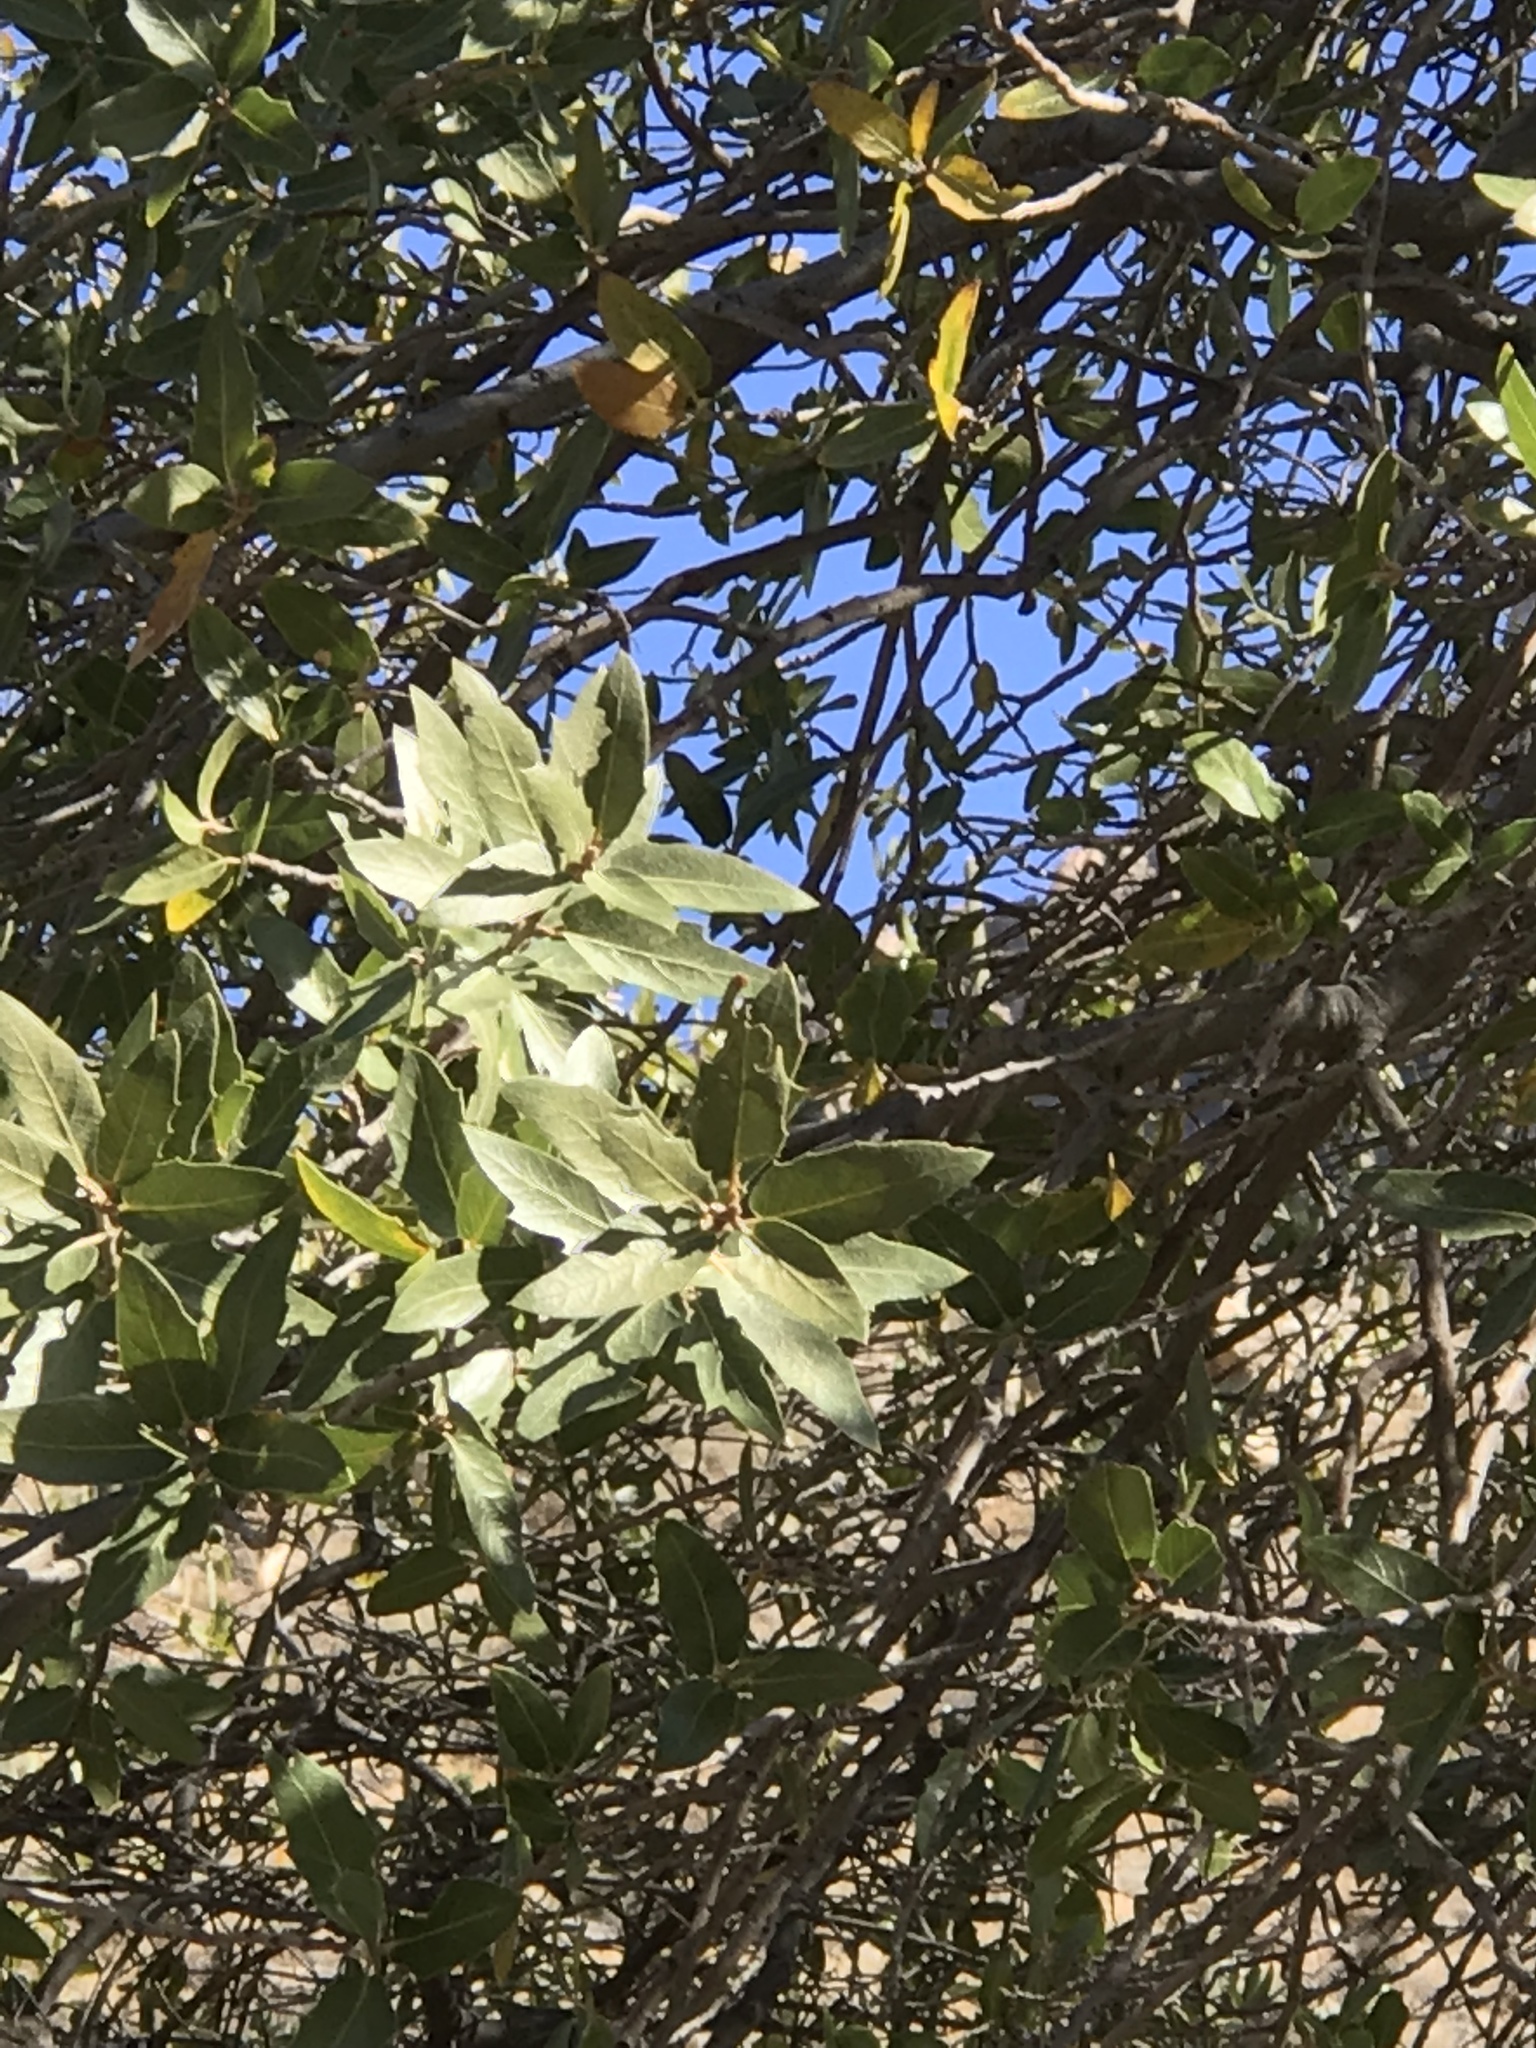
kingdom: Plantae
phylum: Tracheophyta
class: Magnoliopsida
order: Fagales
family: Fagaceae
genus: Quercus
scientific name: Quercus grisea
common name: Gray oak
